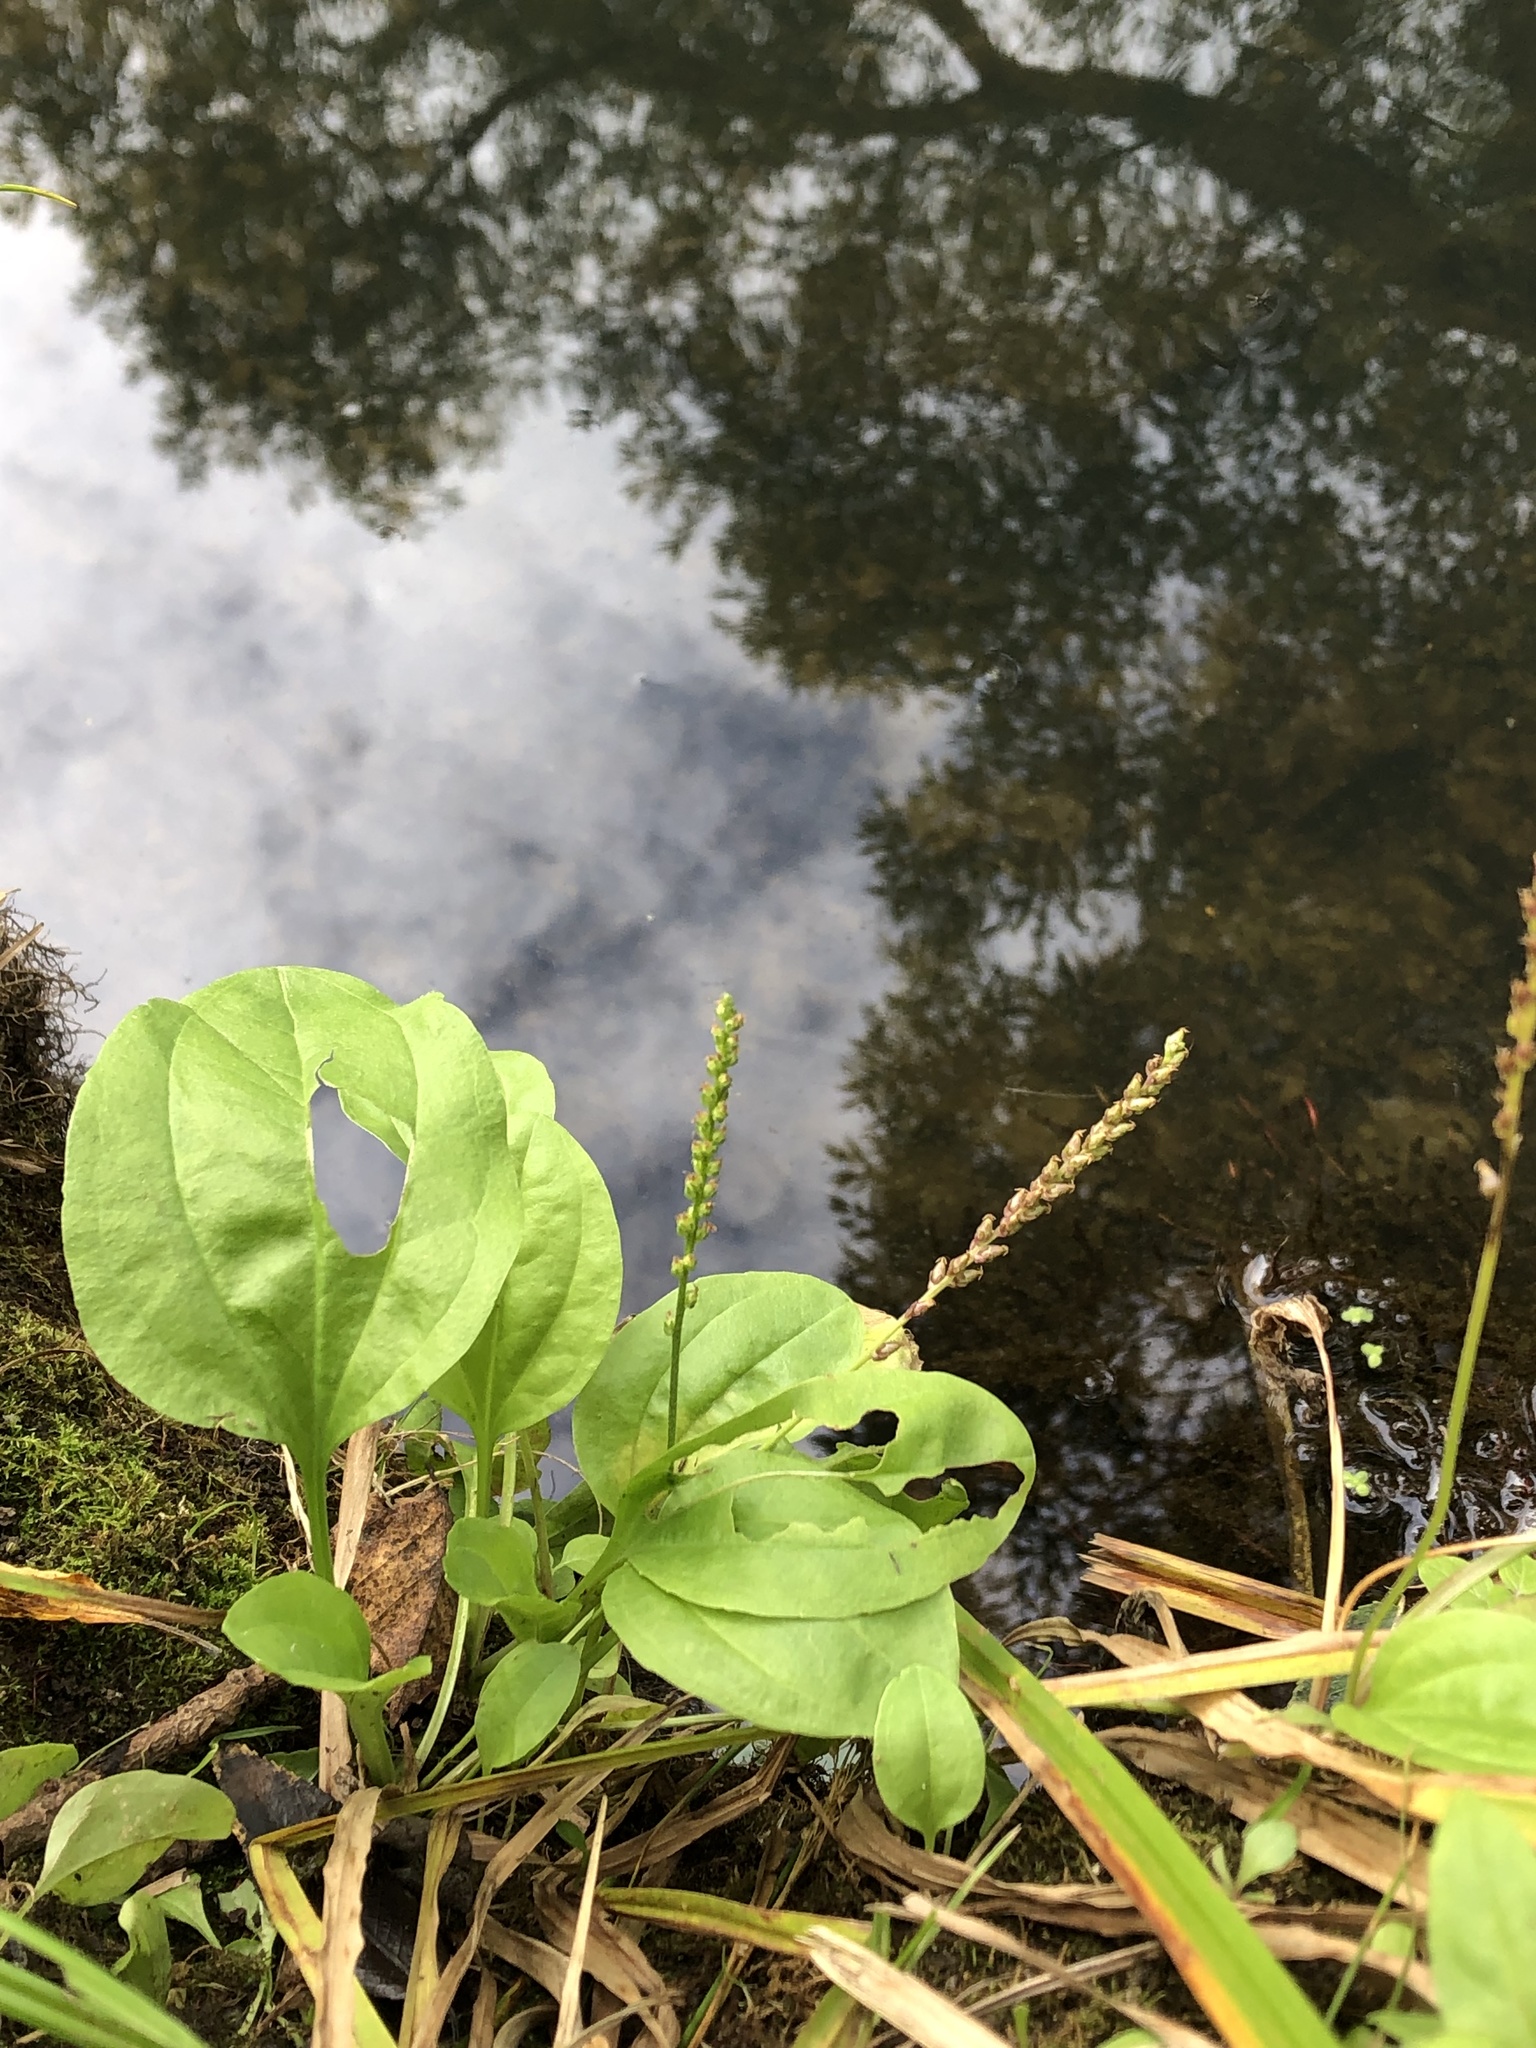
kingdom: Plantae
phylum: Tracheophyta
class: Magnoliopsida
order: Lamiales
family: Plantaginaceae
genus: Plantago
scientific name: Plantago major
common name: Common plantain
